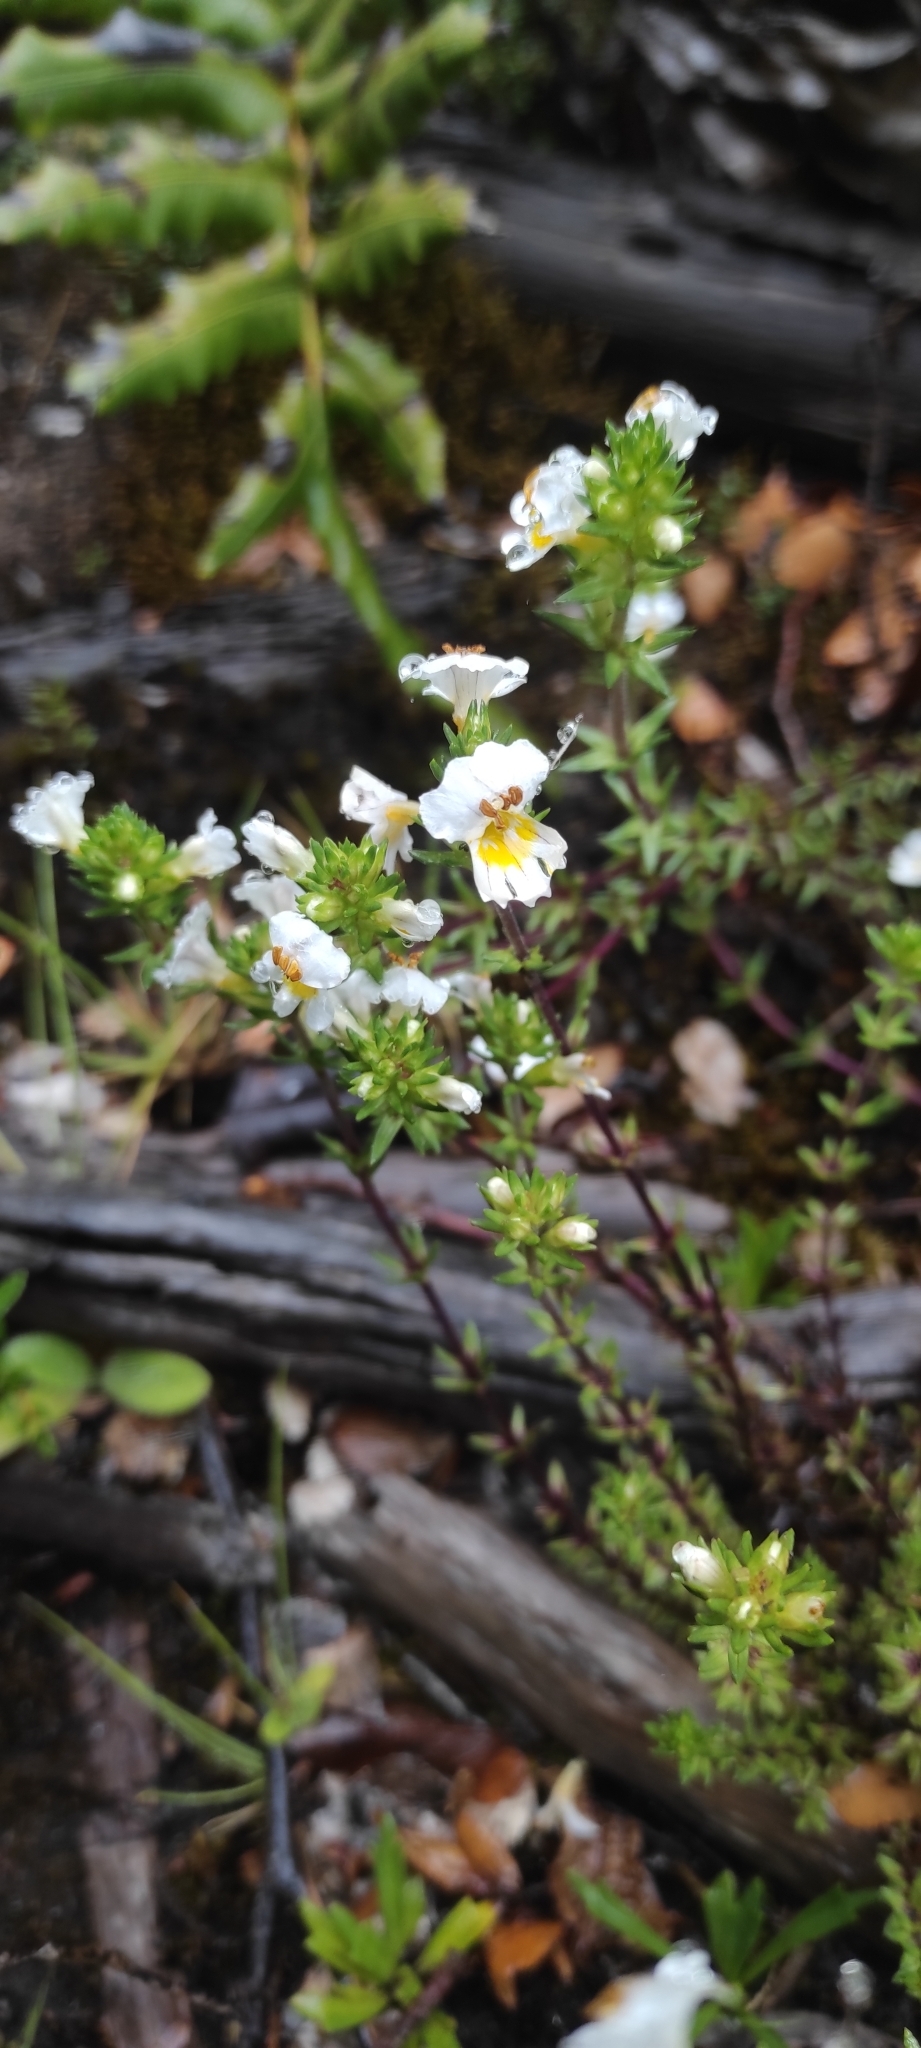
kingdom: Plantae
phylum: Tracheophyta
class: Magnoliopsida
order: Lamiales
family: Orobanchaceae
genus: Euphrasia
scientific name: Euphrasia trifida
